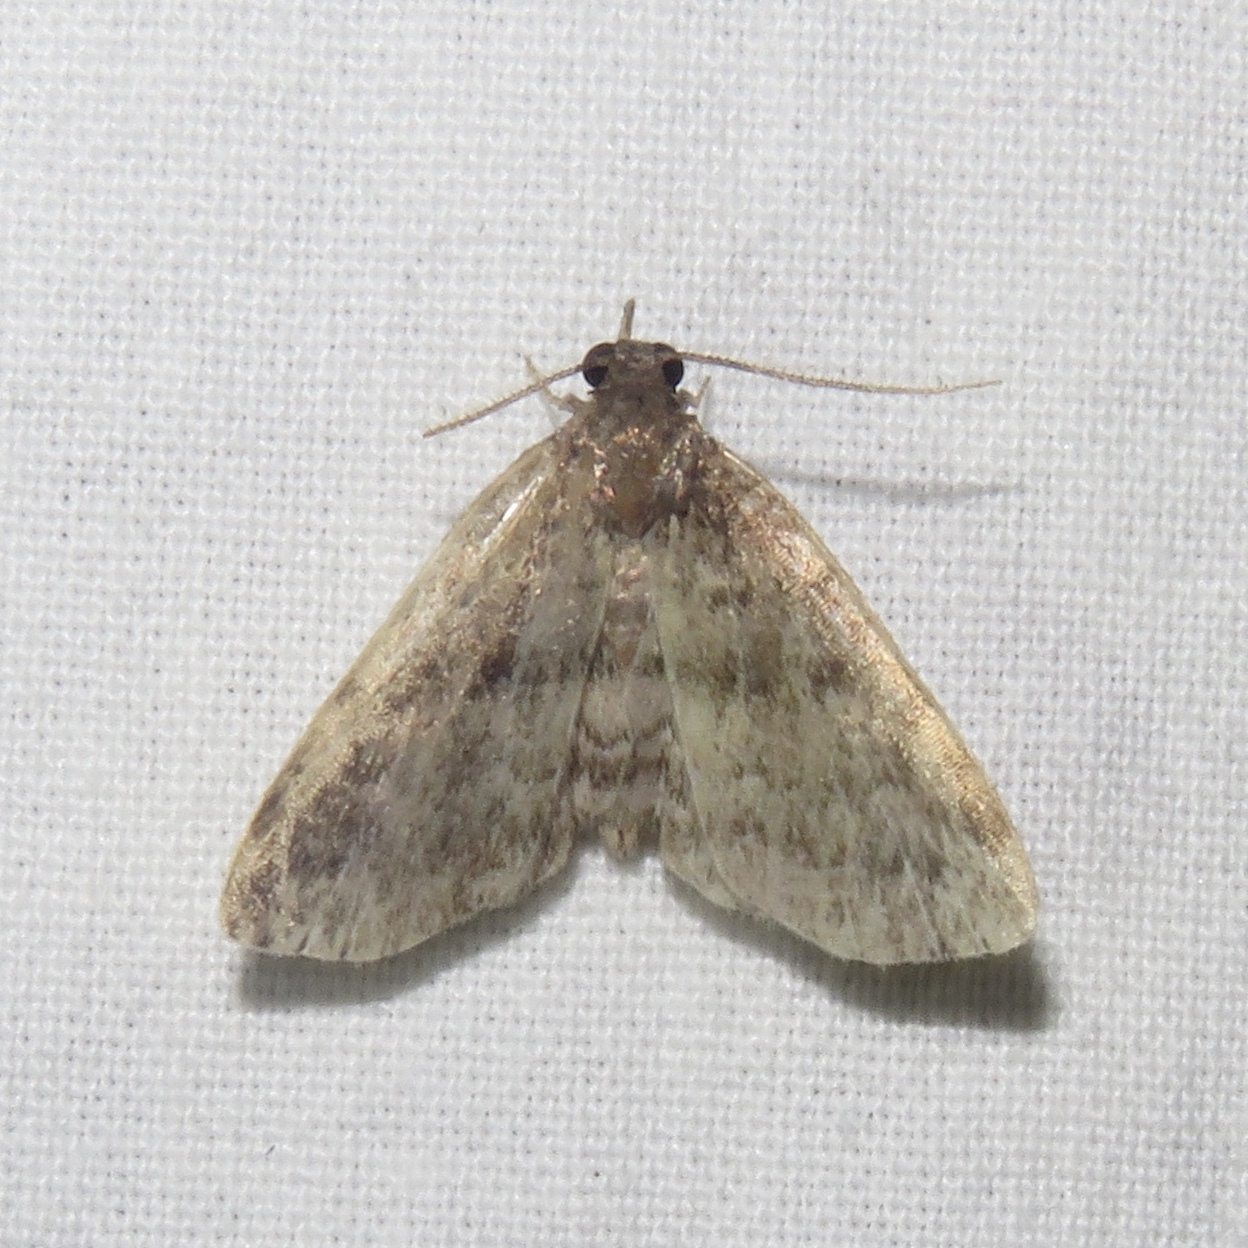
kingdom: Animalia
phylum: Arthropoda
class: Insecta
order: Lepidoptera
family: Erebidae
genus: Idia
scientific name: Idia forbesii
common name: Forbes' idia moth
